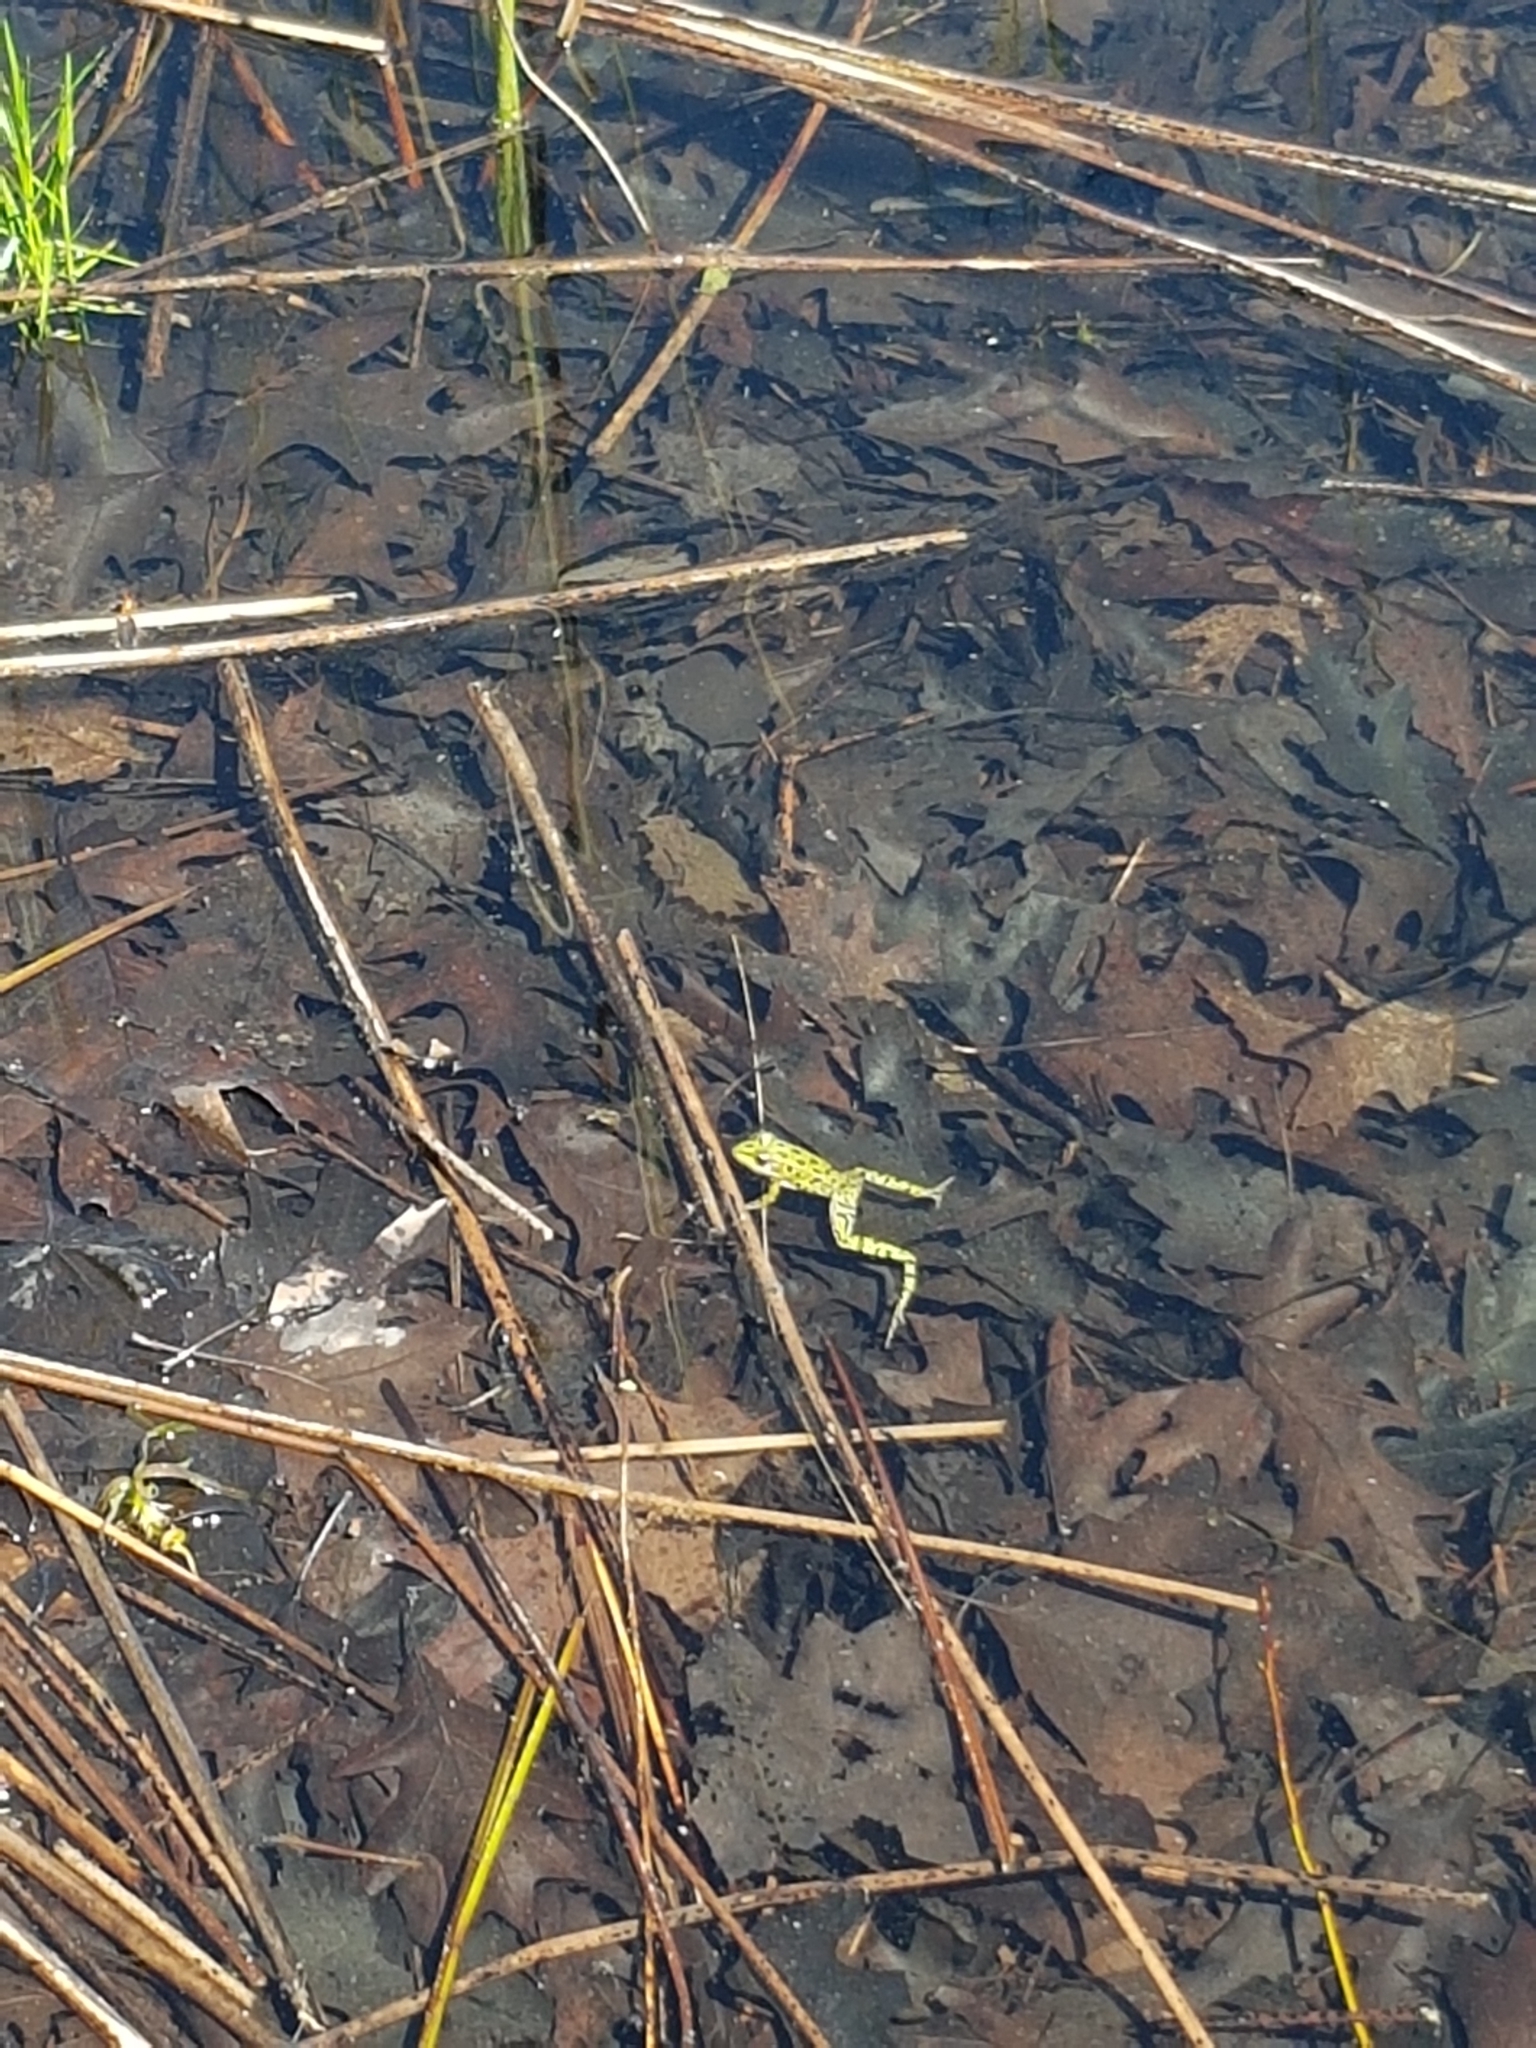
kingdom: Animalia
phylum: Chordata
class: Amphibia
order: Anura
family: Ranidae
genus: Lithobates
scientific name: Lithobates pipiens
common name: Northern leopard frog
